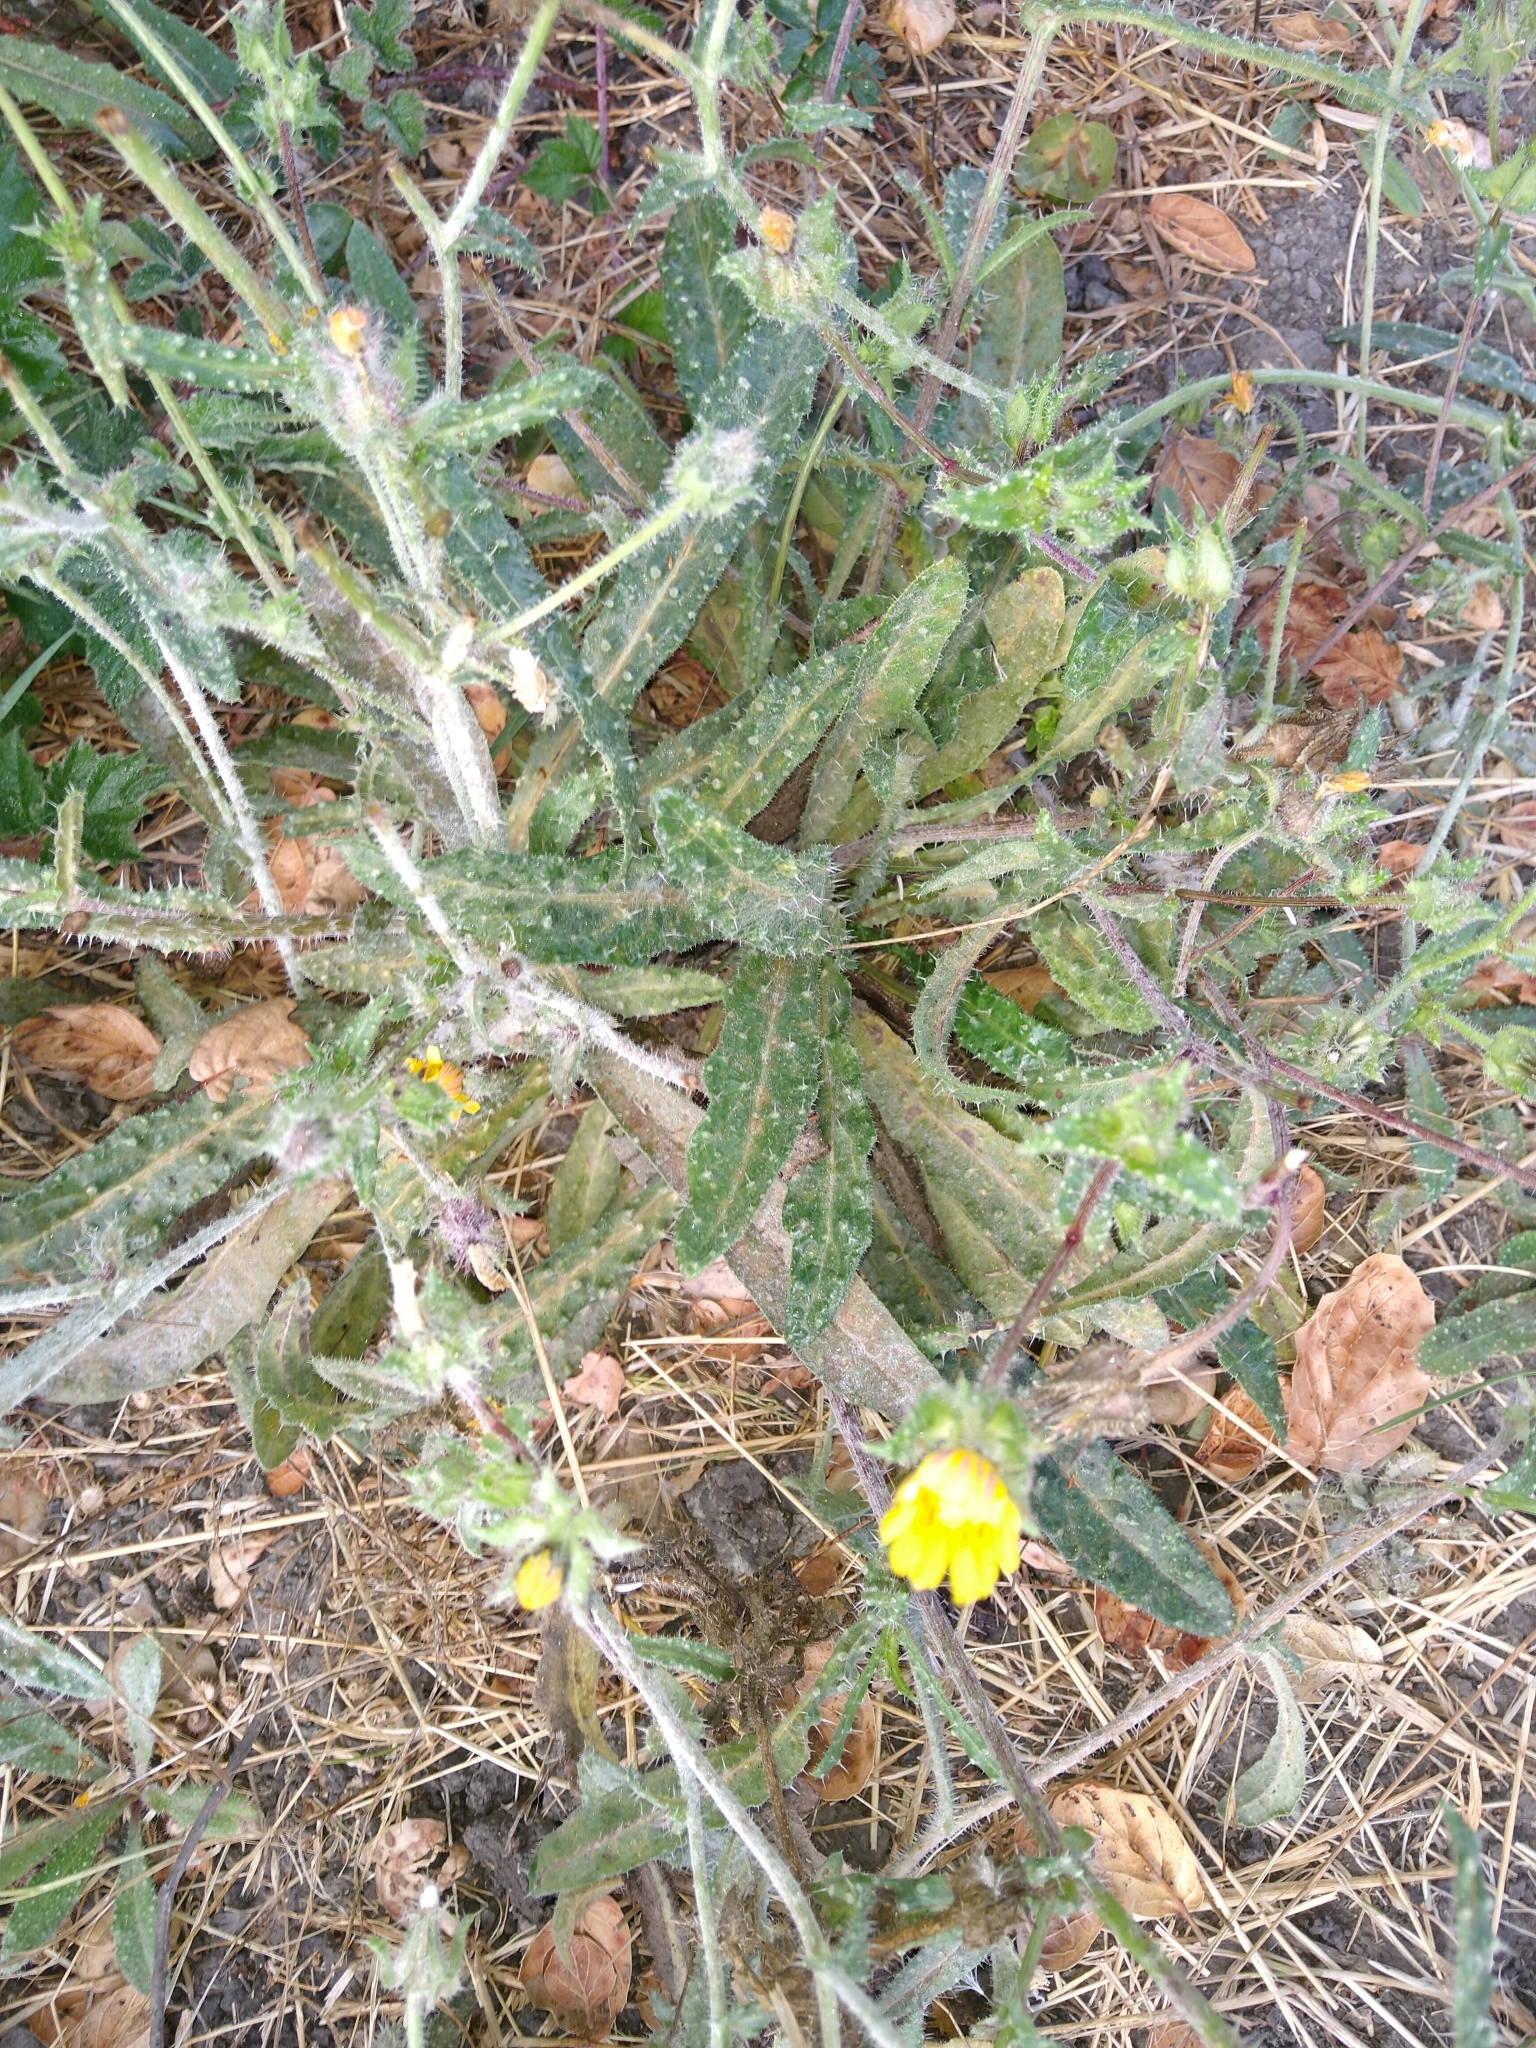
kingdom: Plantae
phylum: Tracheophyta
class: Magnoliopsida
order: Asterales
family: Asteraceae
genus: Helminthotheca
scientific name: Helminthotheca echioides
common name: Ox-tongue
